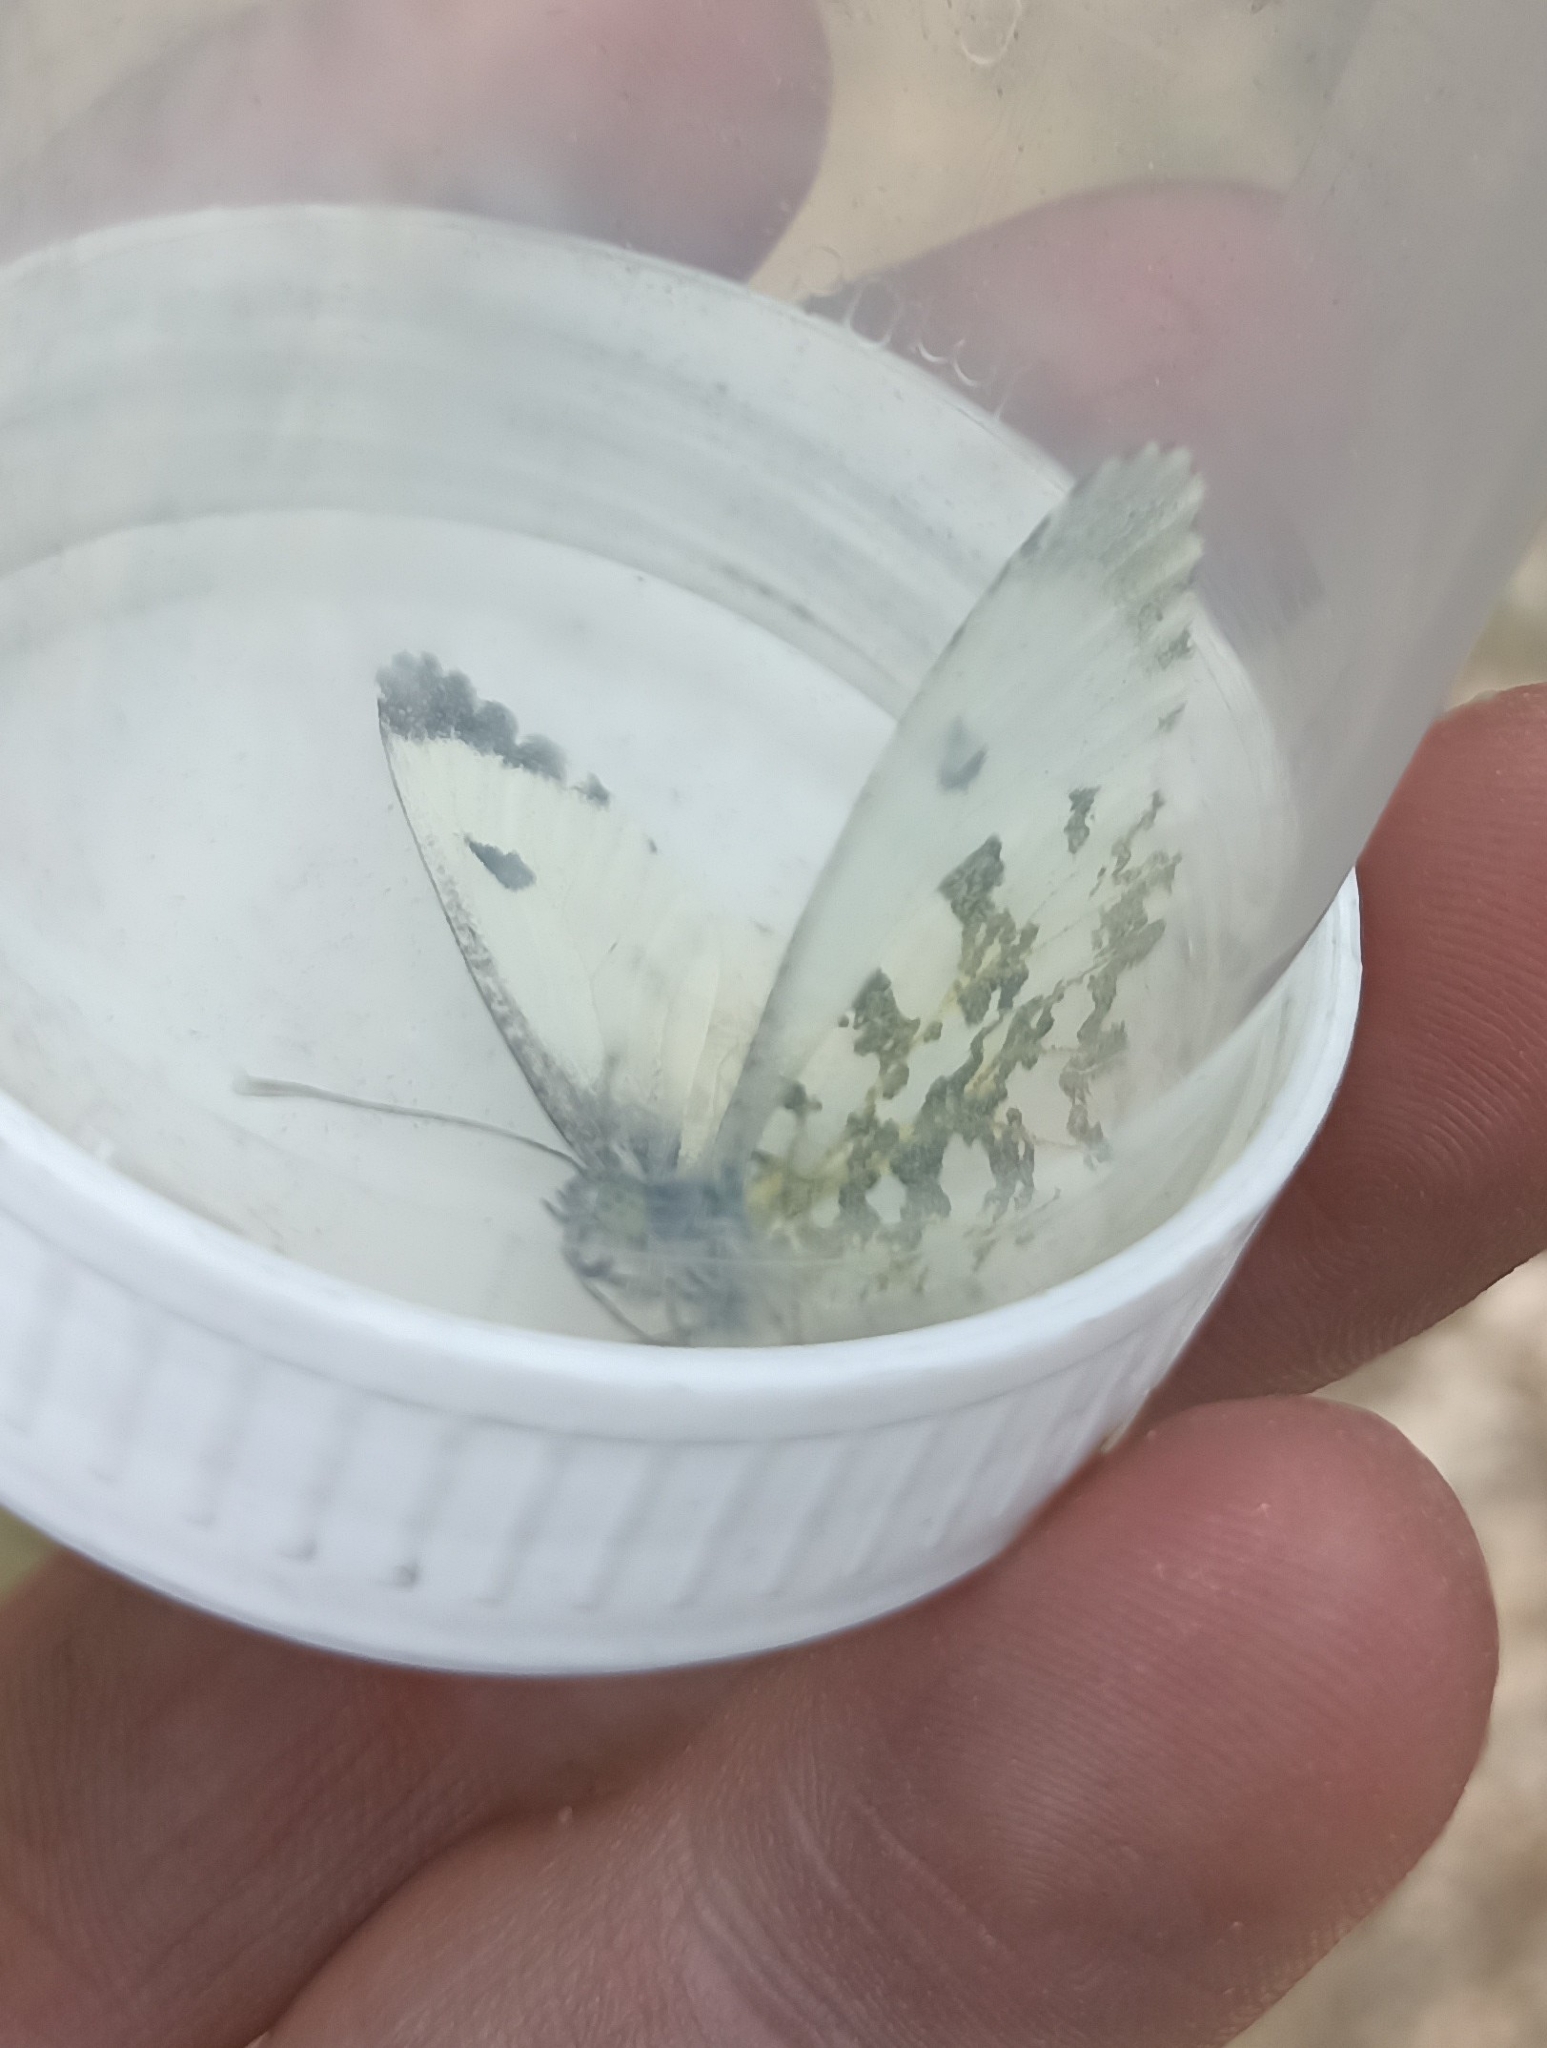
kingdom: Animalia
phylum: Arthropoda
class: Insecta
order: Lepidoptera
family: Pieridae
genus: Anthocharis
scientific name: Anthocharis cardamines
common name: Orange-tip
